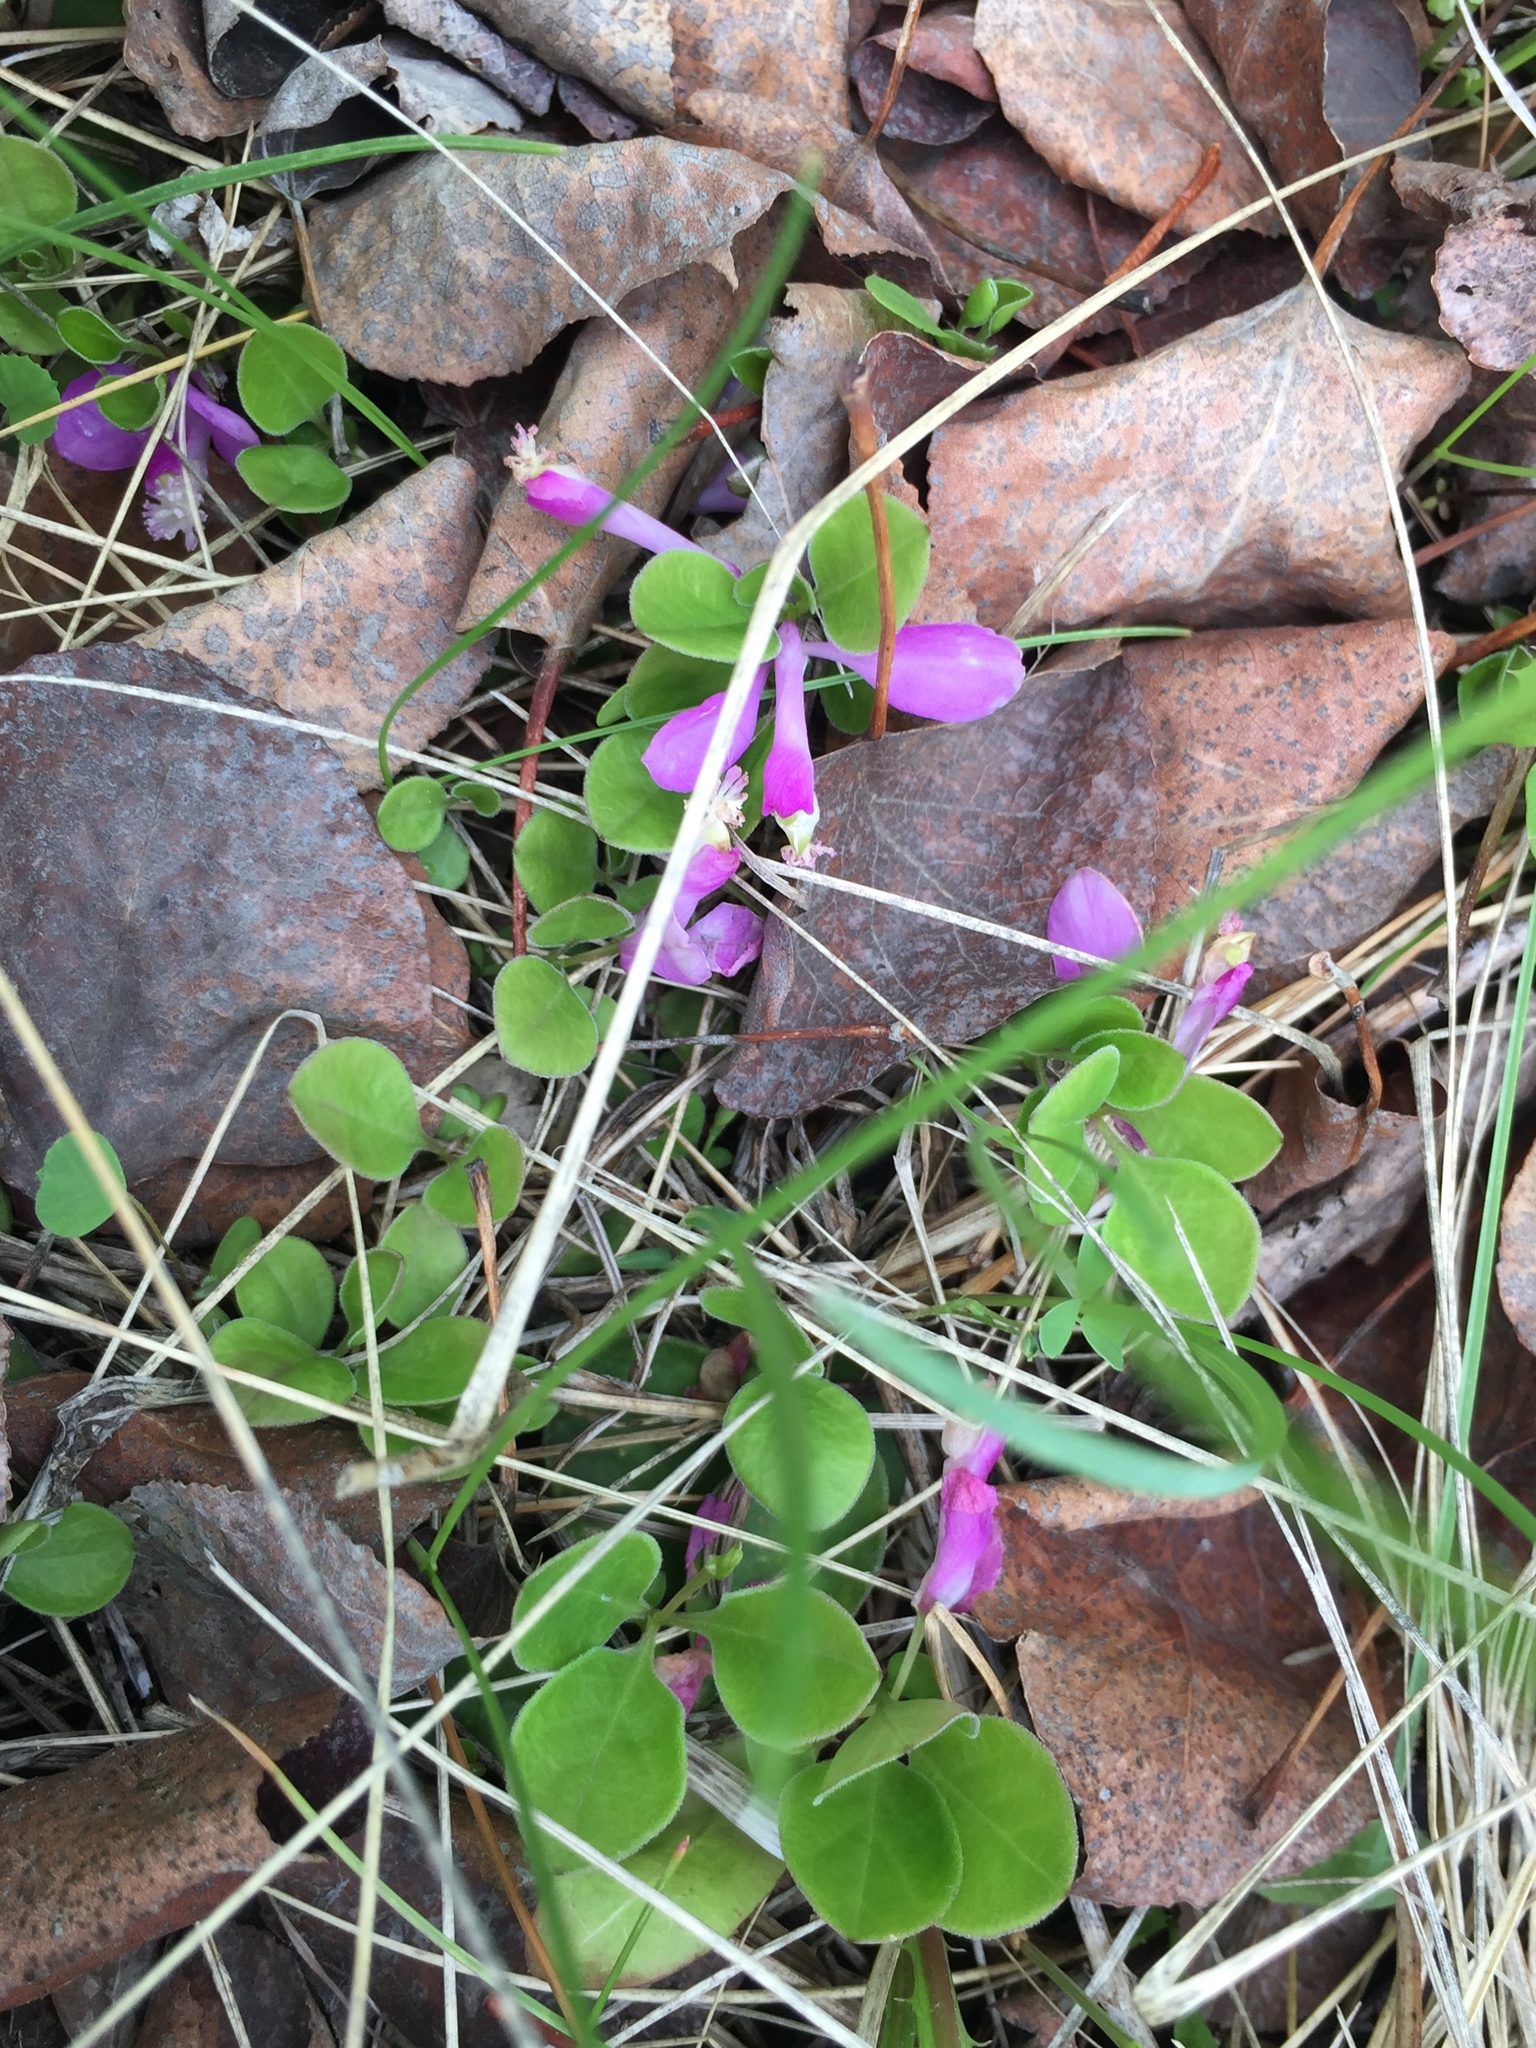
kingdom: Plantae
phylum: Tracheophyta
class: Magnoliopsida
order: Fabales
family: Polygalaceae
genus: Polygaloides
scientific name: Polygaloides paucifolia
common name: Bird-on-the-wing
